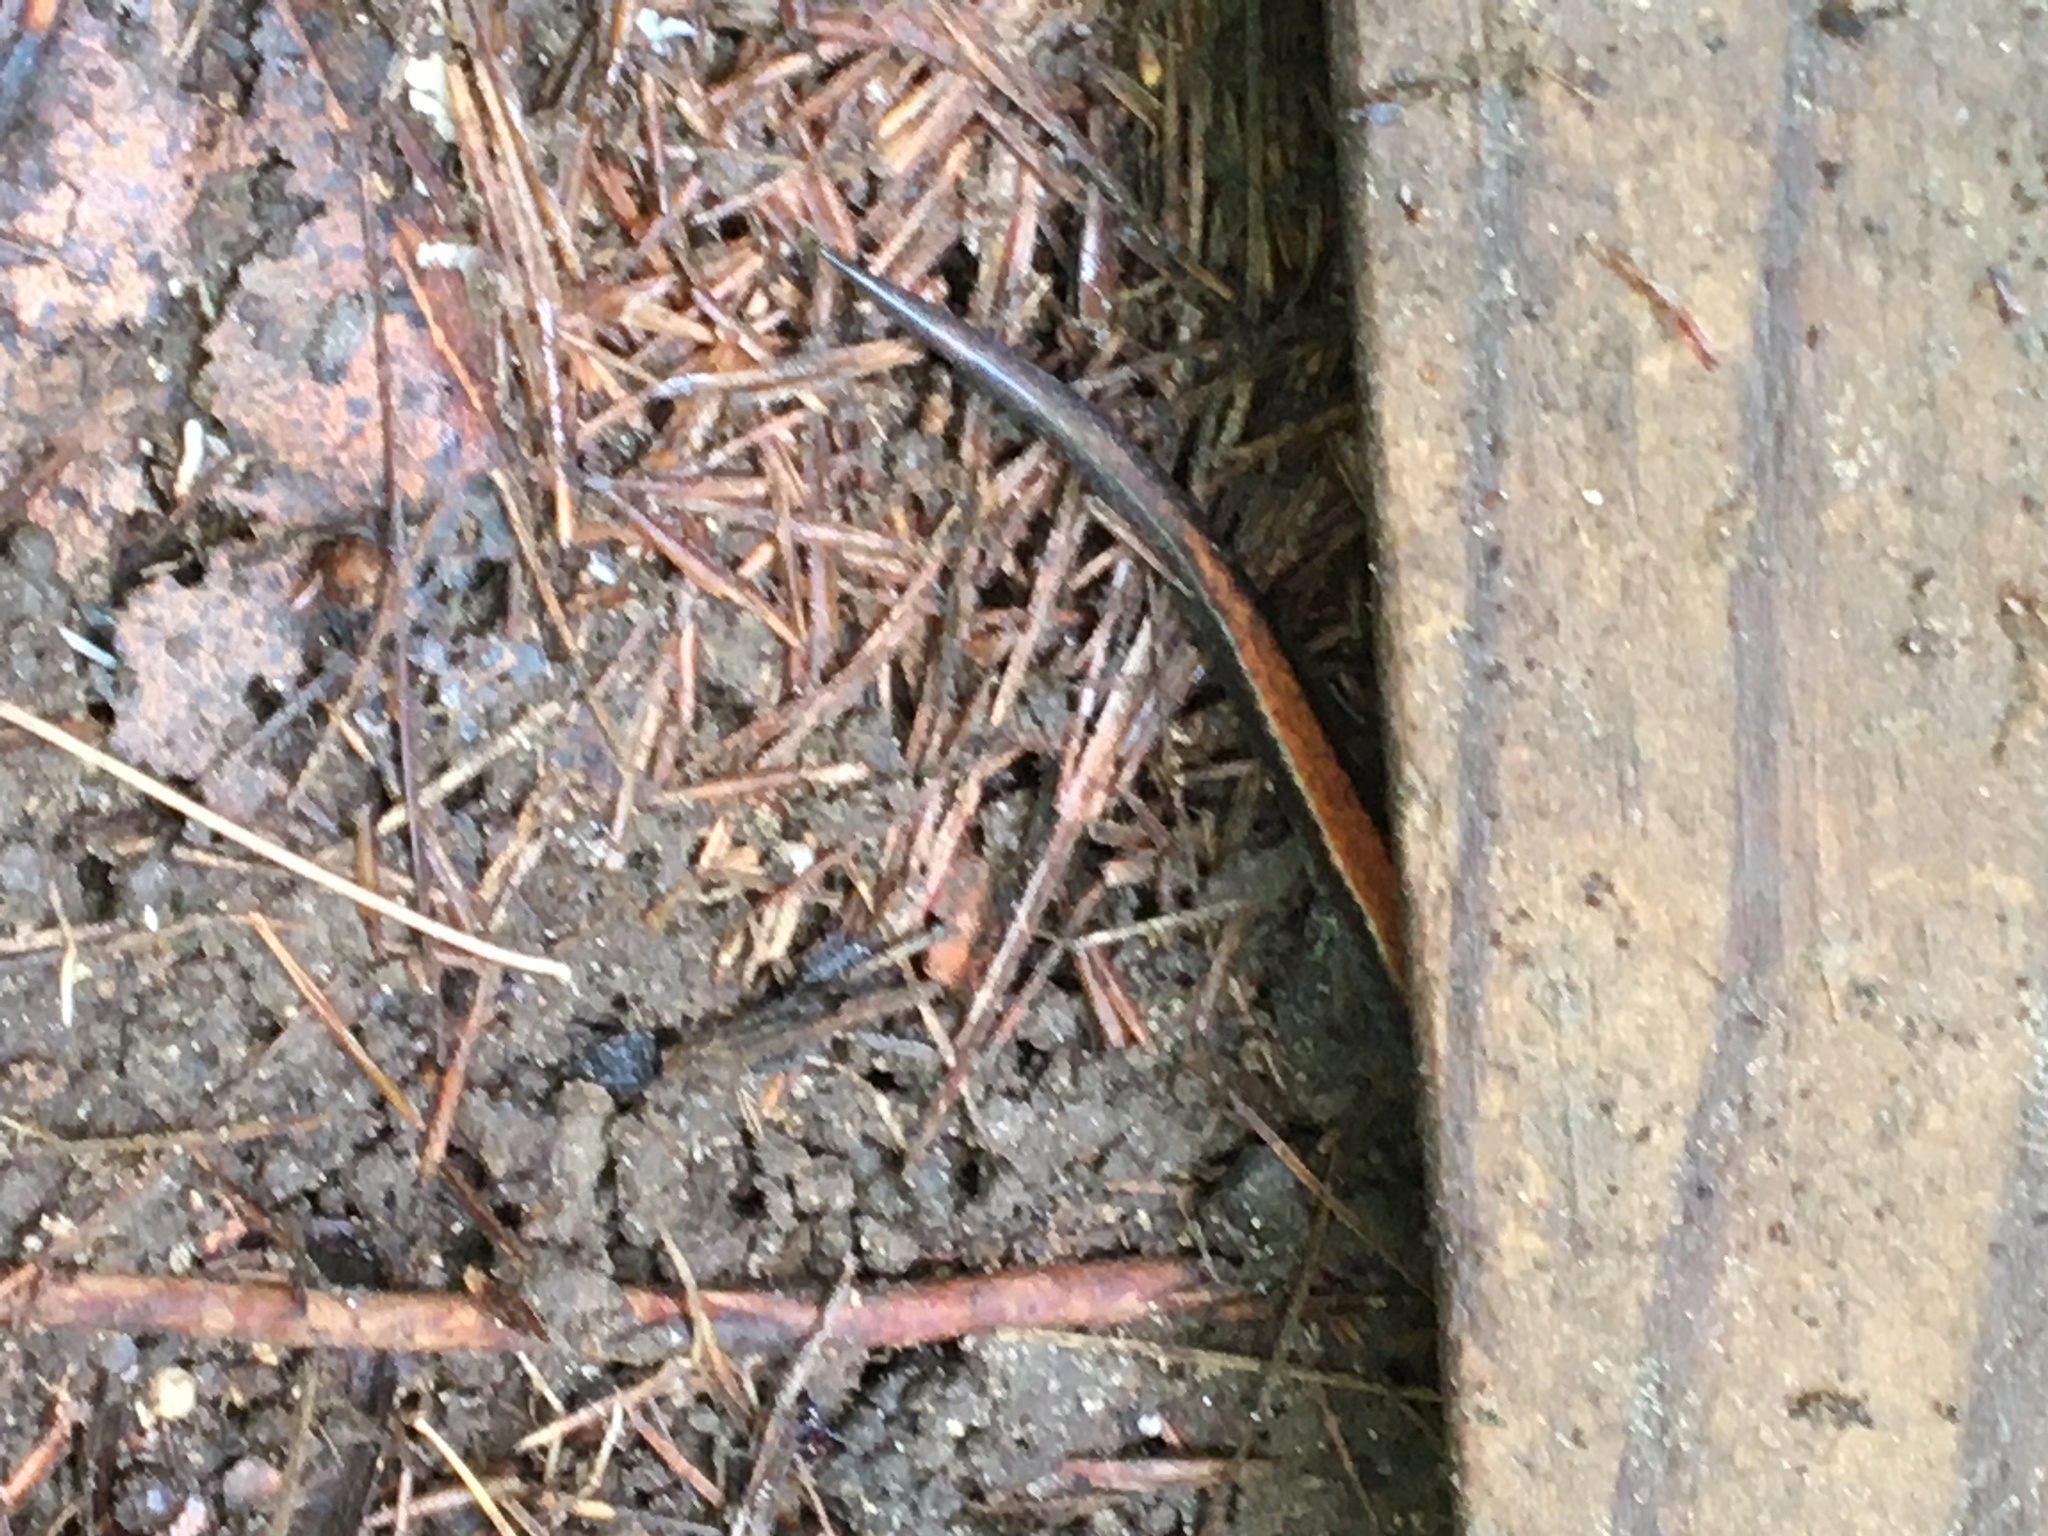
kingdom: Animalia
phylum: Chordata
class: Amphibia
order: Caudata
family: Plethodontidae
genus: Plethodon
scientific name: Plethodon cinereus
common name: Redback salamander
